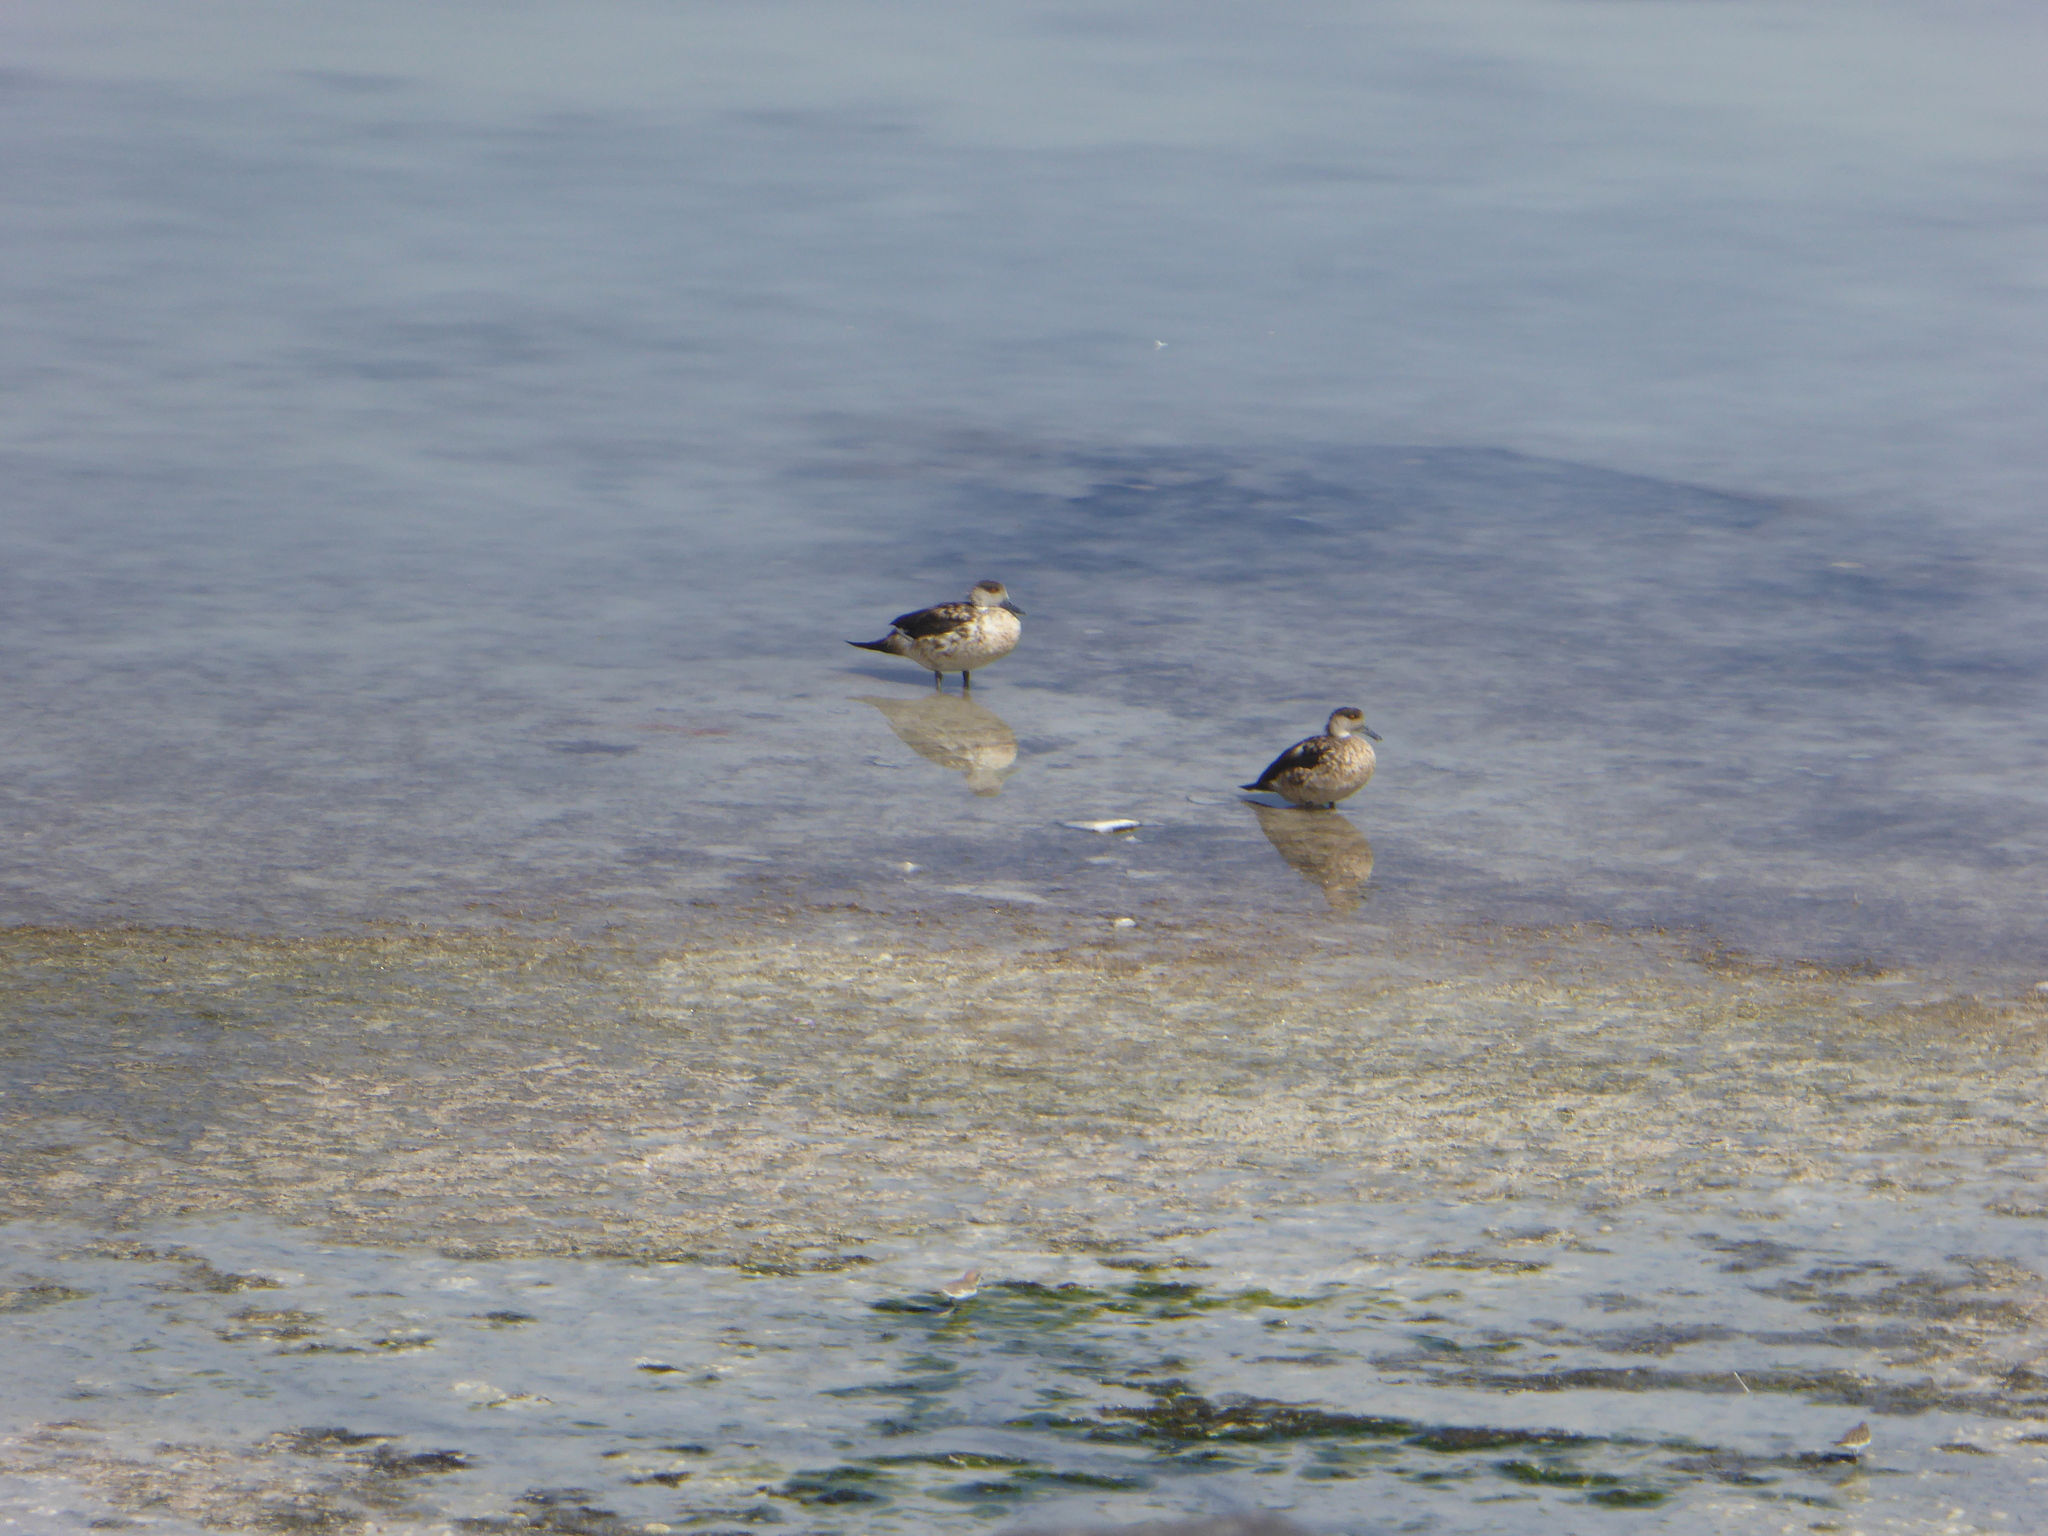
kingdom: Animalia
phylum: Chordata
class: Aves
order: Anseriformes
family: Anatidae
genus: Lophonetta
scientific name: Lophonetta specularioides
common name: Crested duck
